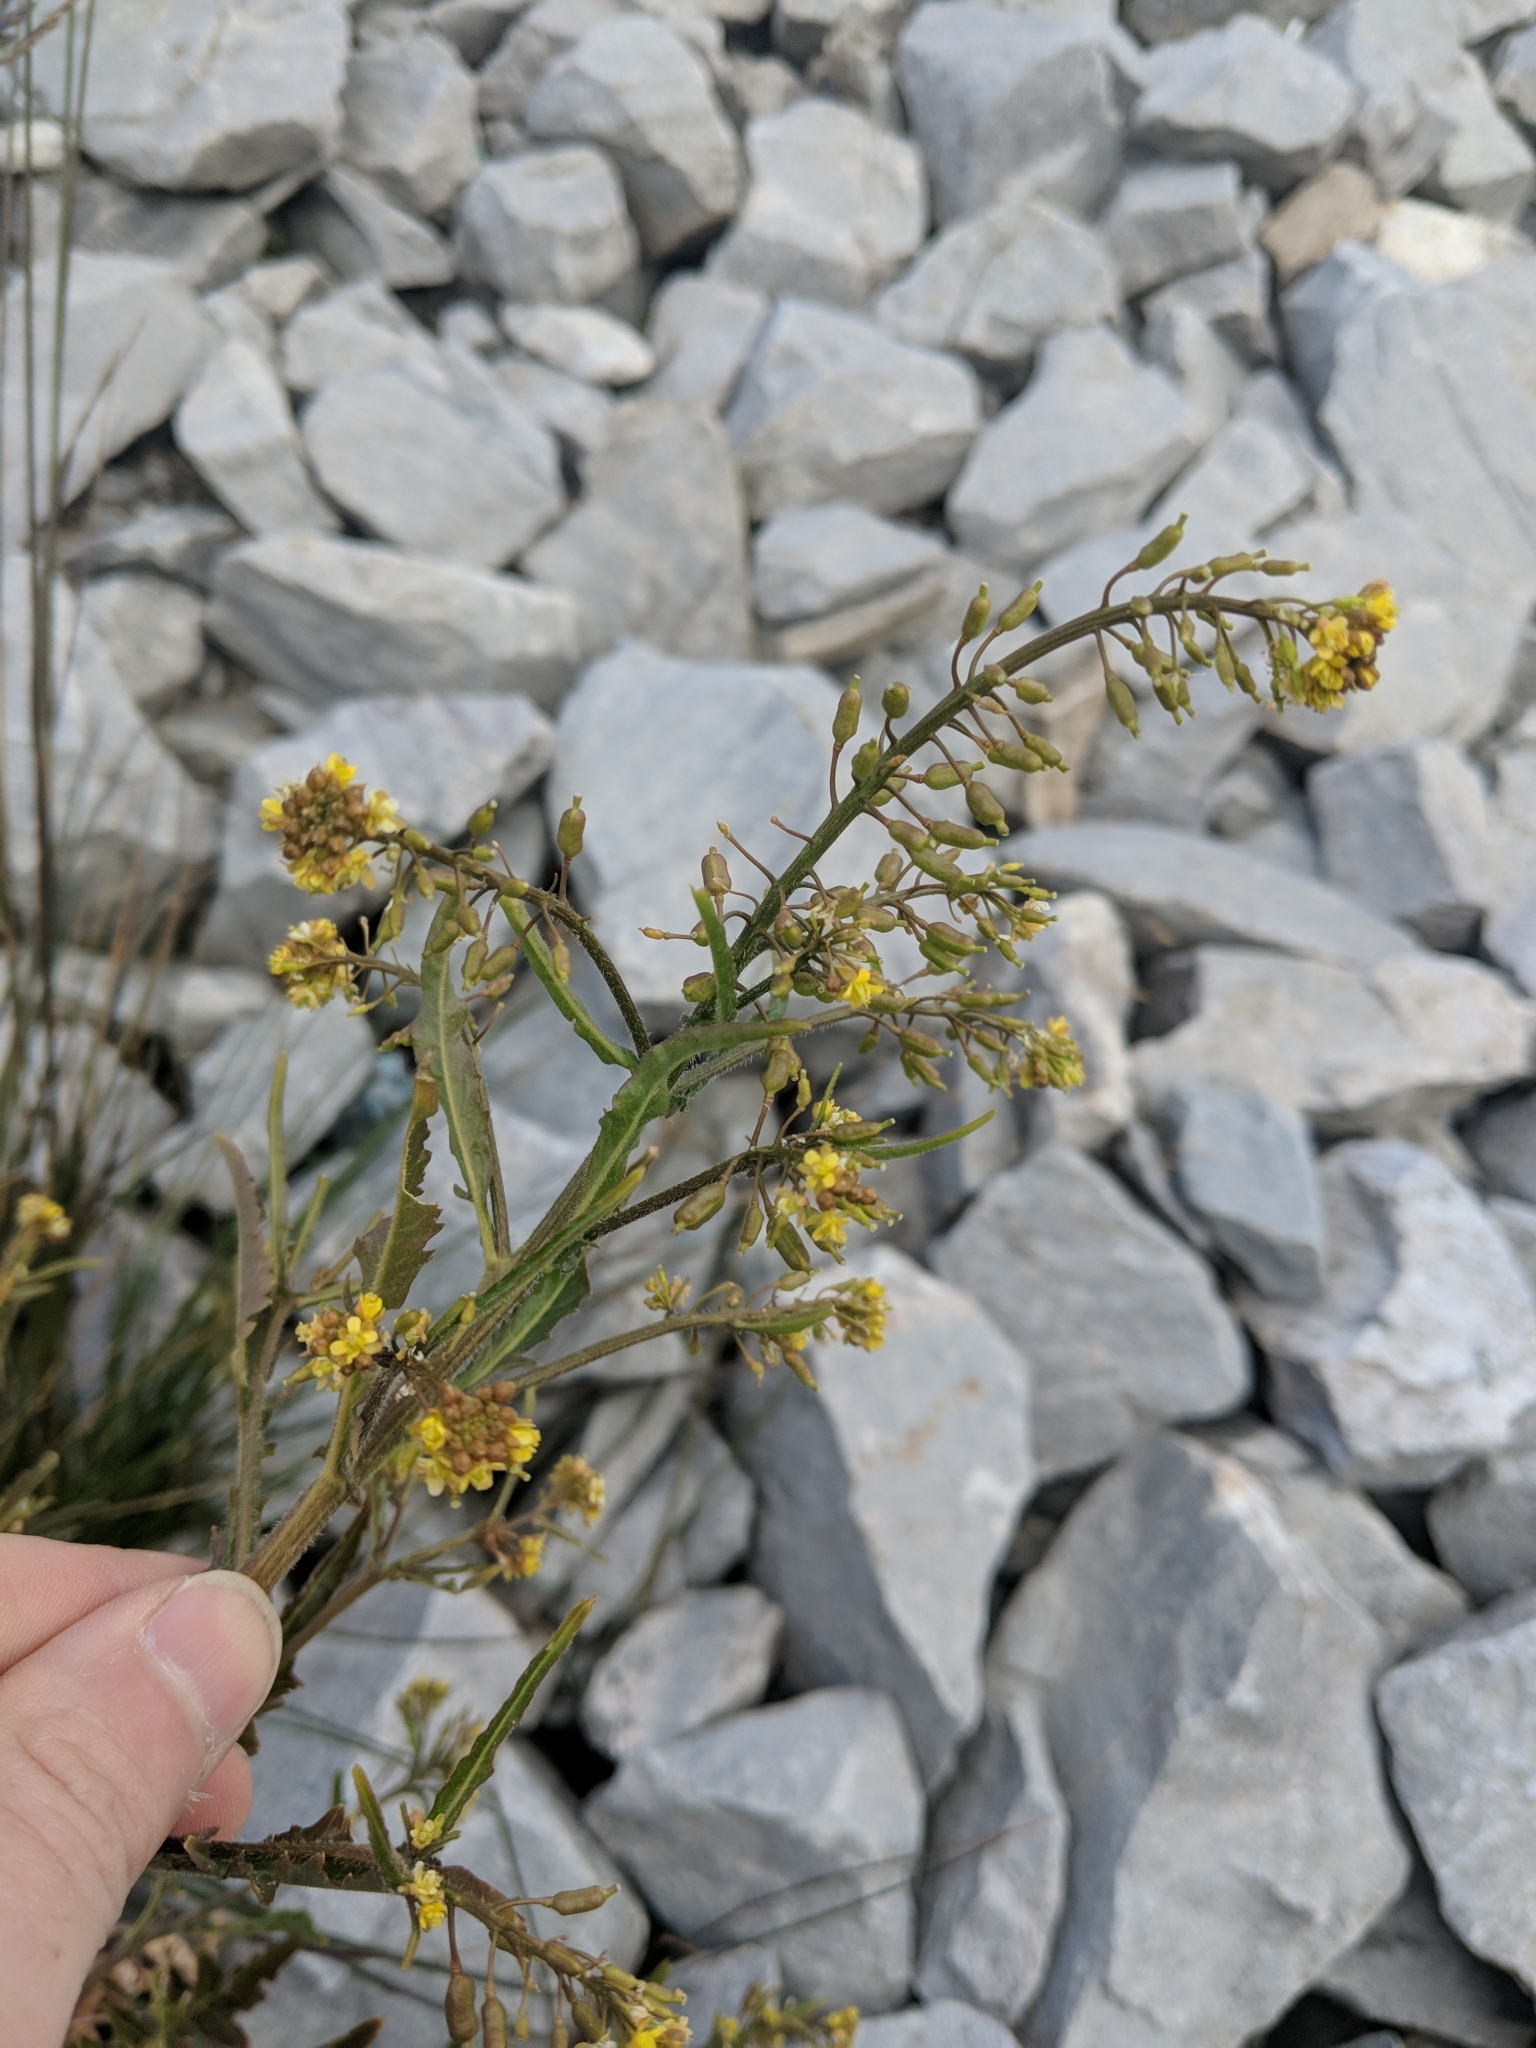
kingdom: Plantae
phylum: Tracheophyta
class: Magnoliopsida
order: Brassicales
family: Brassicaceae
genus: Rorippa
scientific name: Rorippa palustris
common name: Marsh yellow-cress
